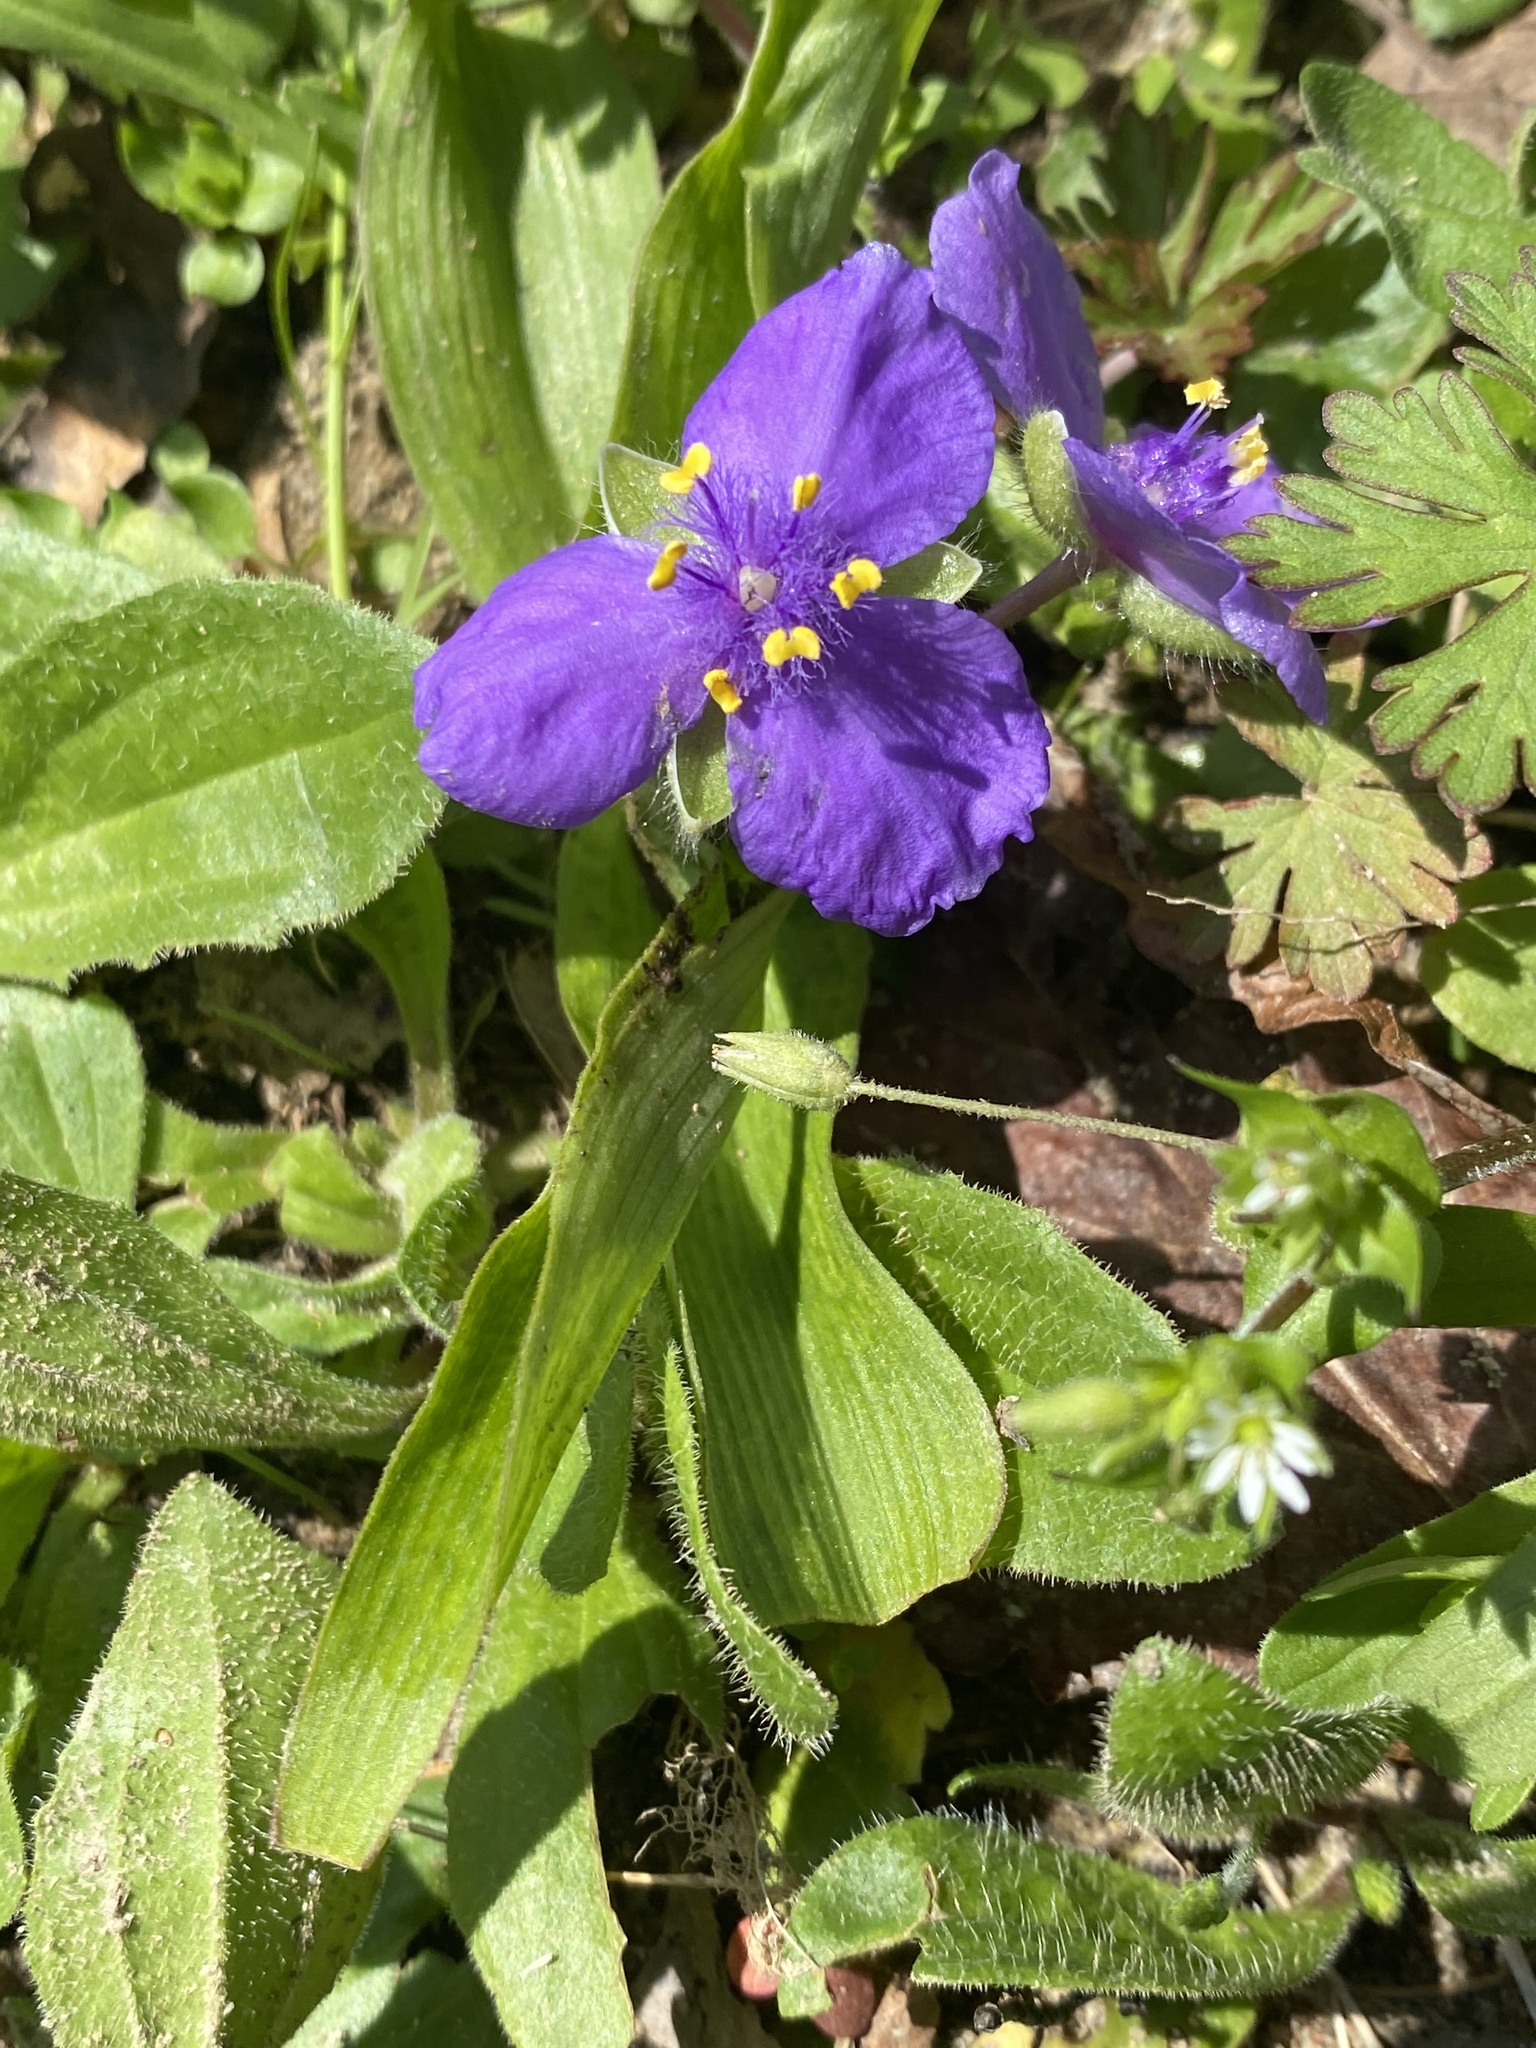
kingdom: Plantae
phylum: Tracheophyta
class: Liliopsida
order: Commelinales
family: Commelinaceae
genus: Tradescantia
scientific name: Tradescantia ernestiana
